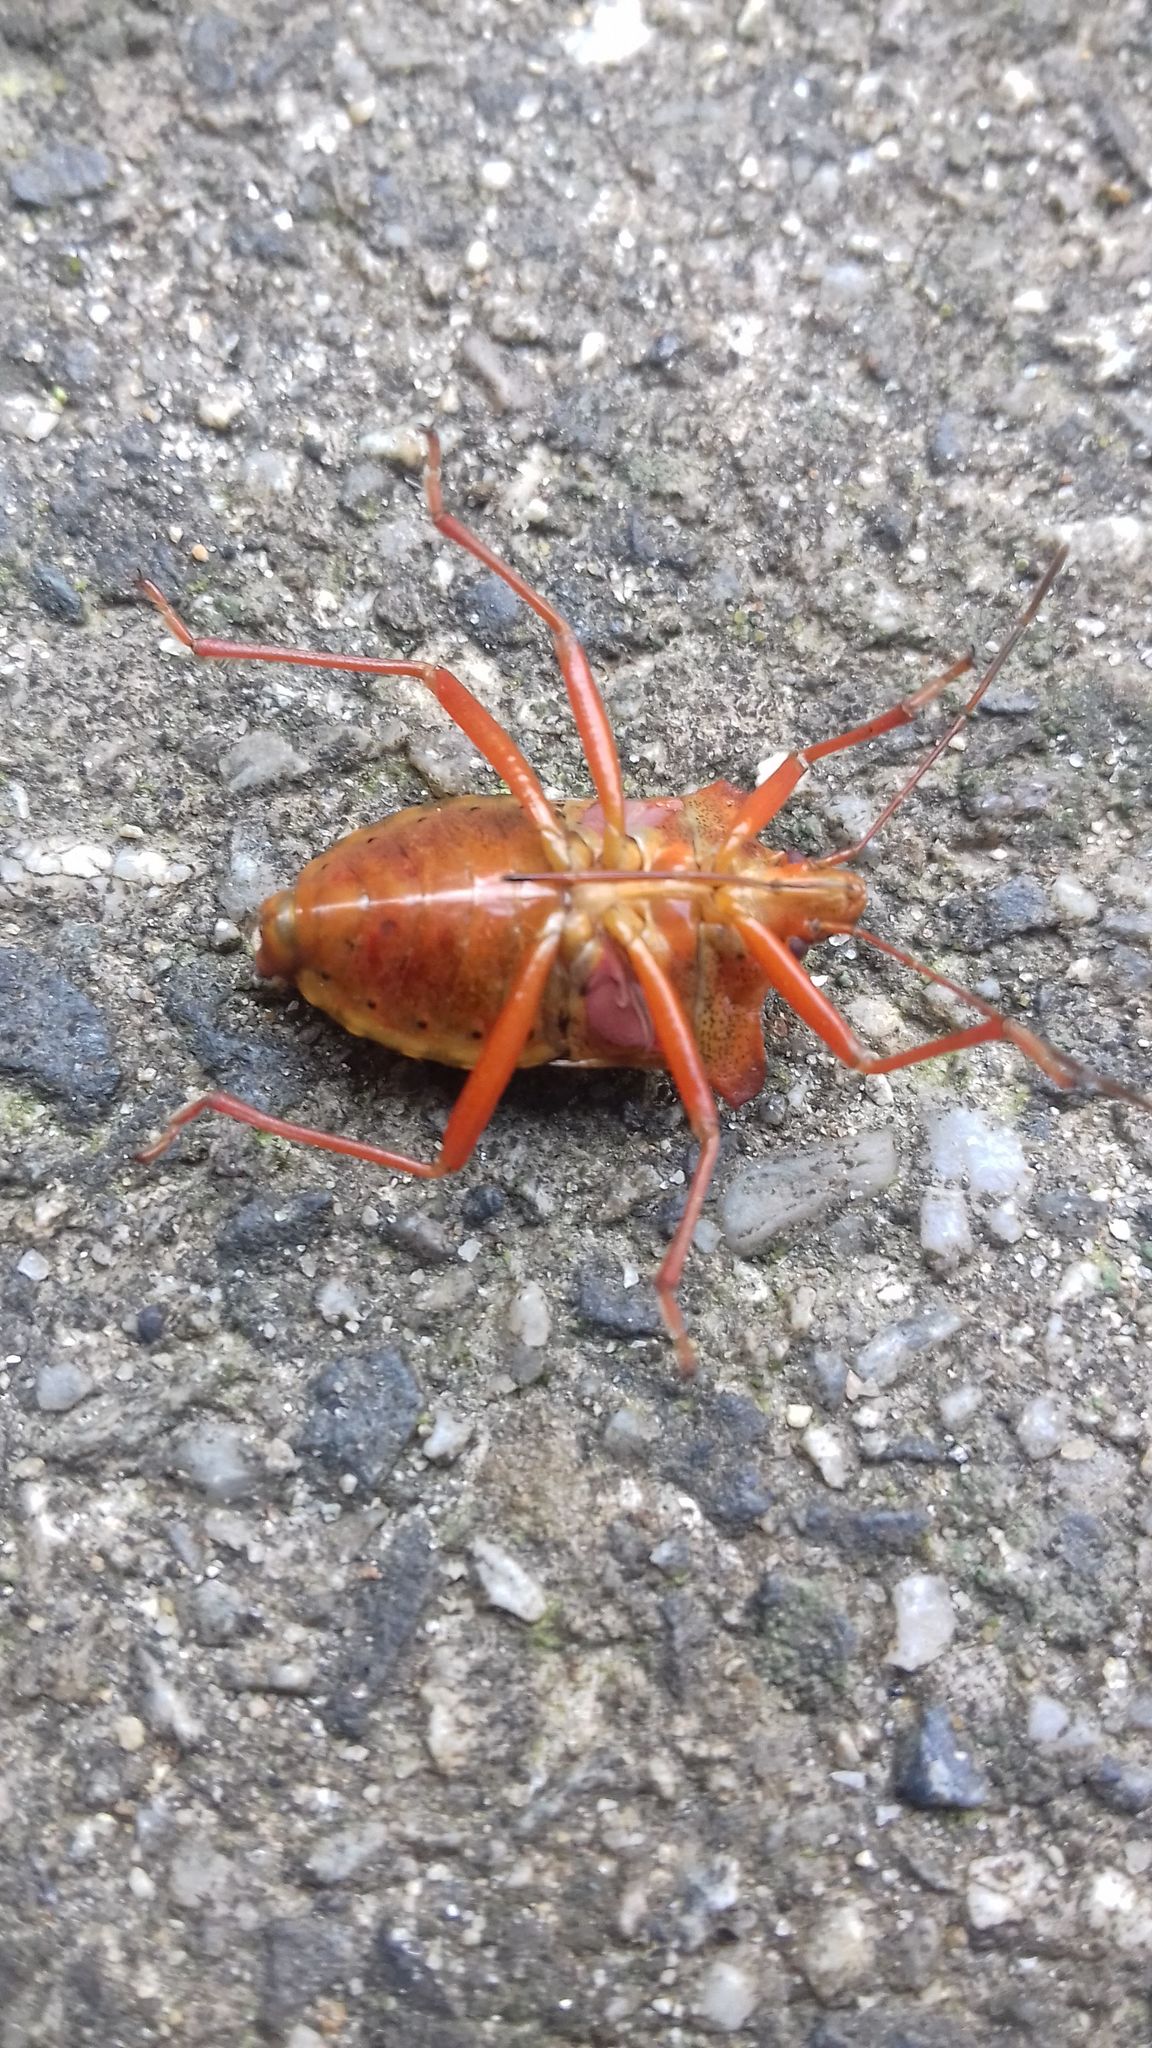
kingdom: Animalia
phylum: Arthropoda
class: Insecta
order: Hemiptera
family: Pentatomidae
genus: Pentatoma
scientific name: Pentatoma rufipes
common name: Forest bug
